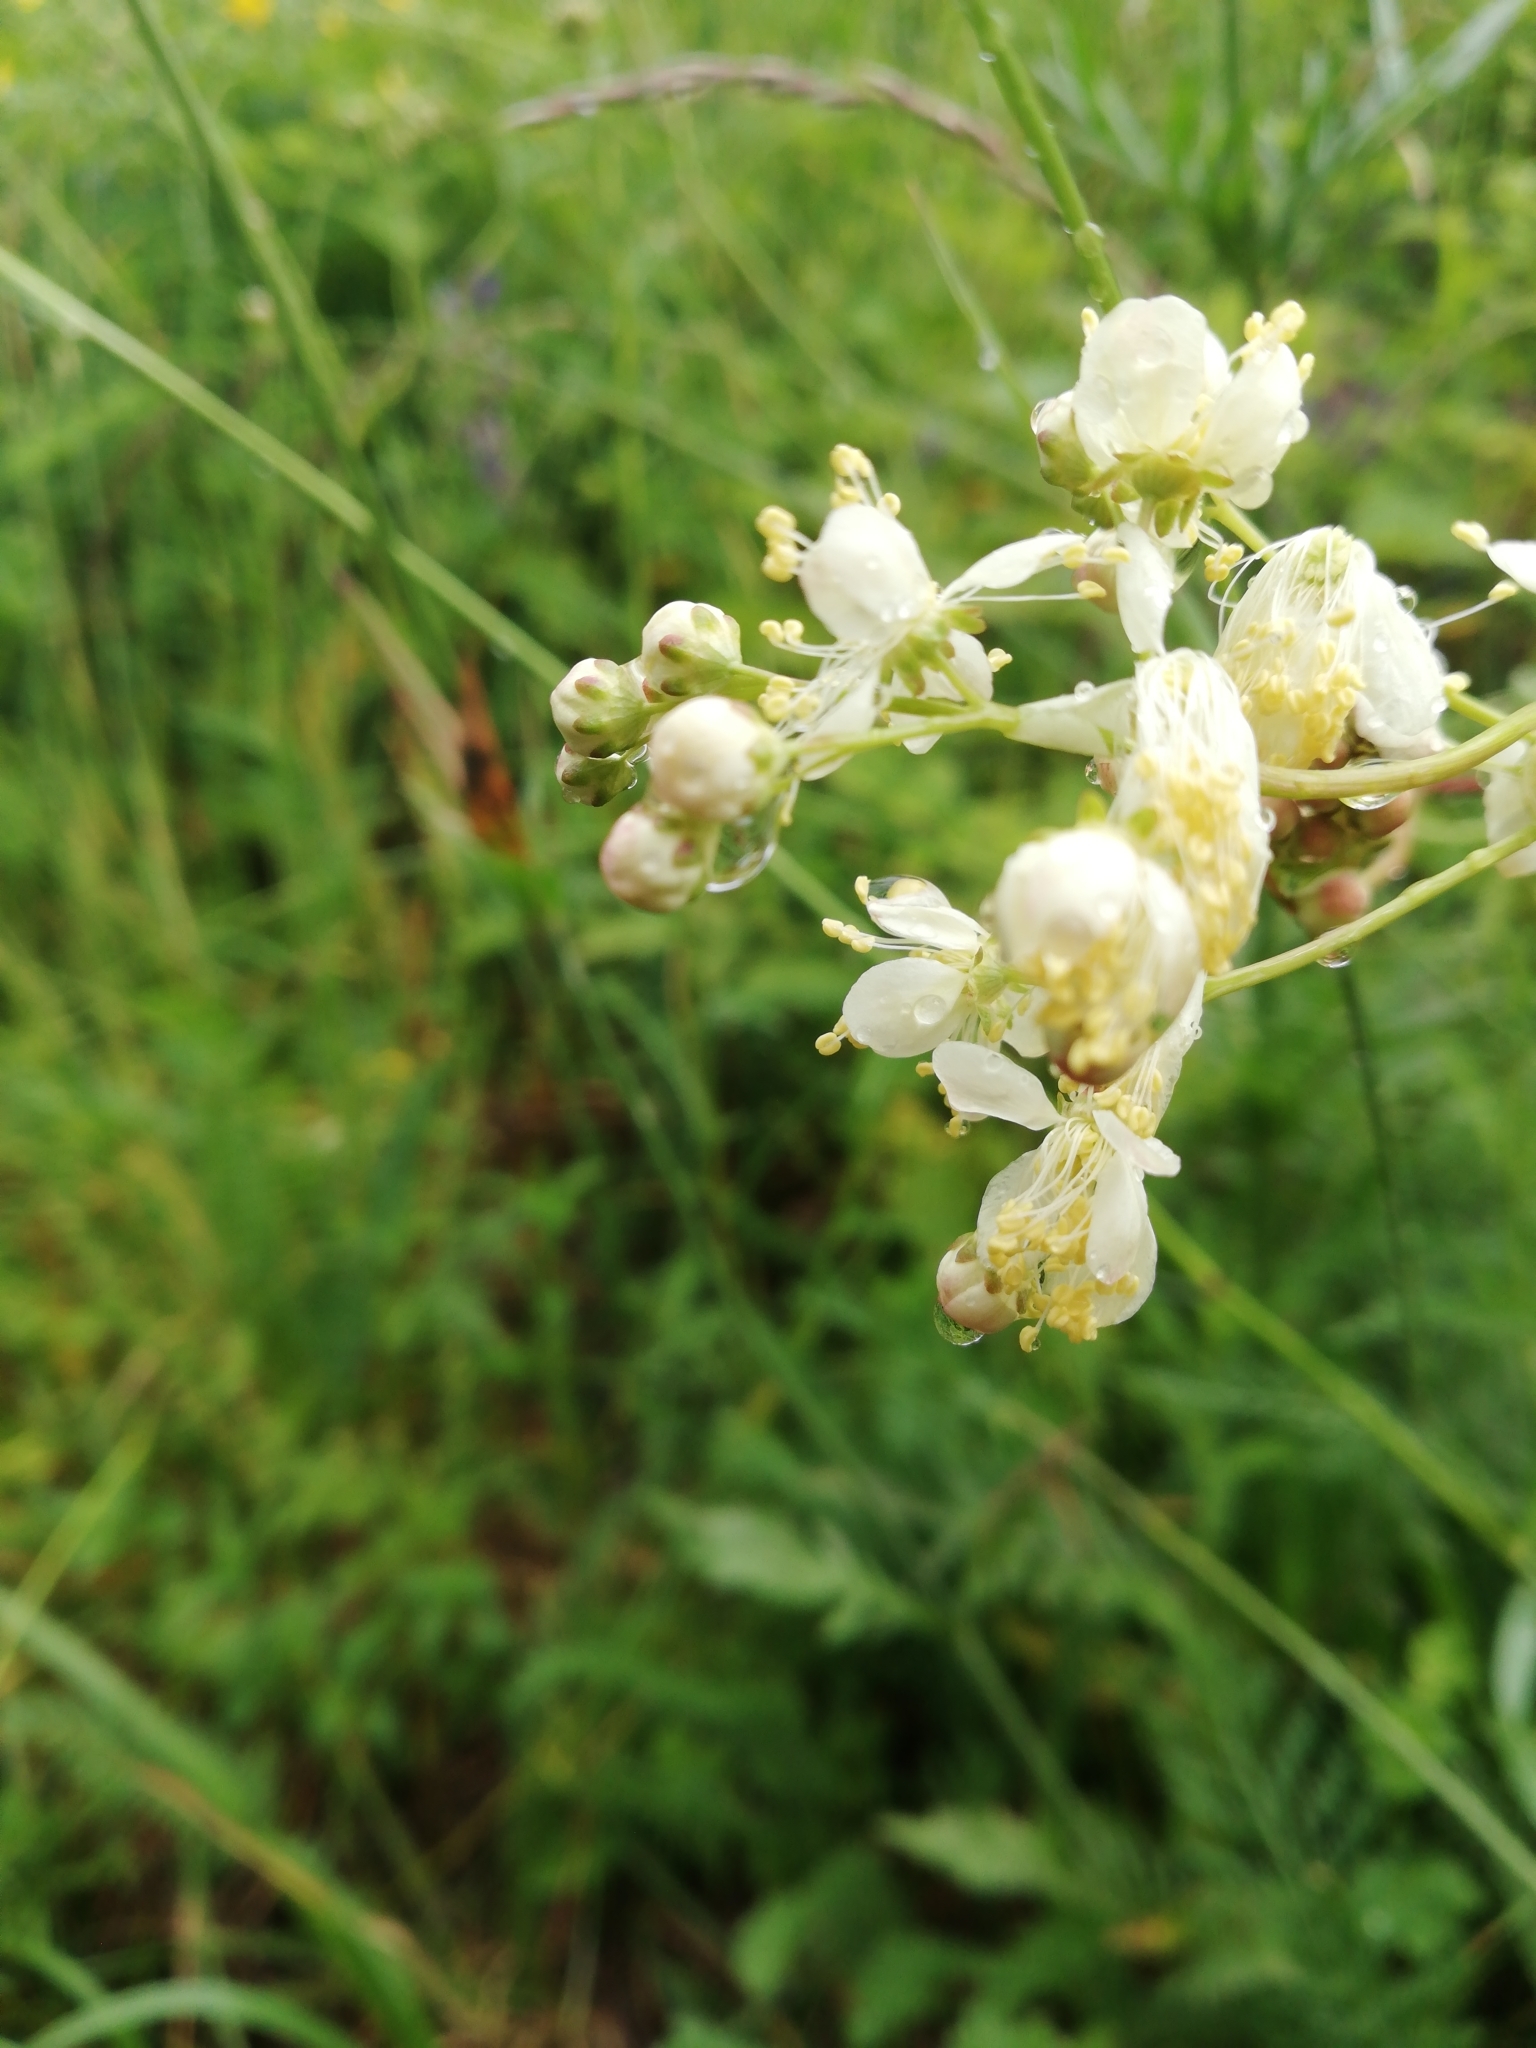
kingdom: Plantae
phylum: Tracheophyta
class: Magnoliopsida
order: Rosales
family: Rosaceae
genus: Filipendula
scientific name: Filipendula vulgaris
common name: Dropwort
